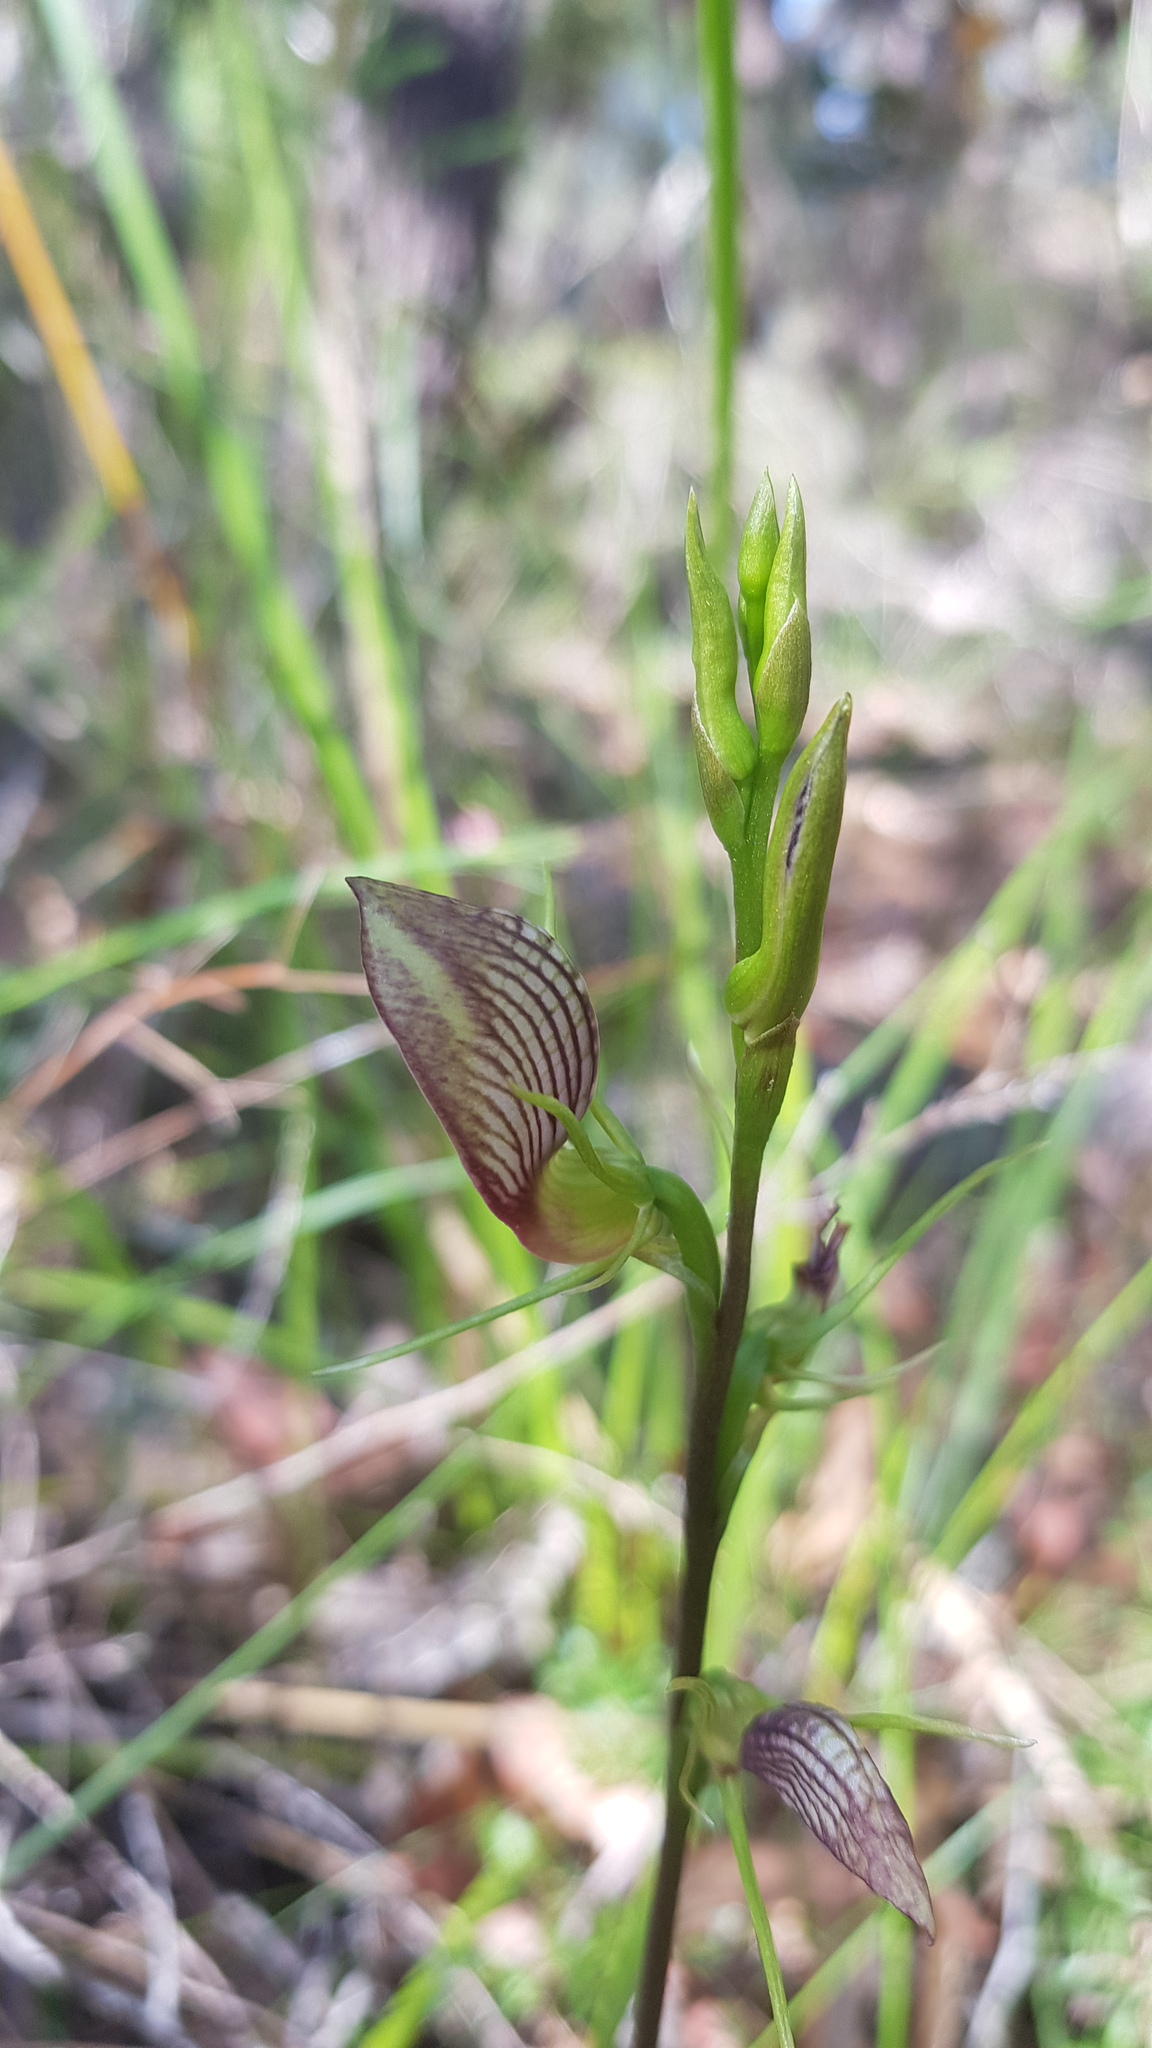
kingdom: Plantae
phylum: Tracheophyta
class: Liliopsida
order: Asparagales
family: Orchidaceae
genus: Cryptostylis
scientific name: Cryptostylis erecta
